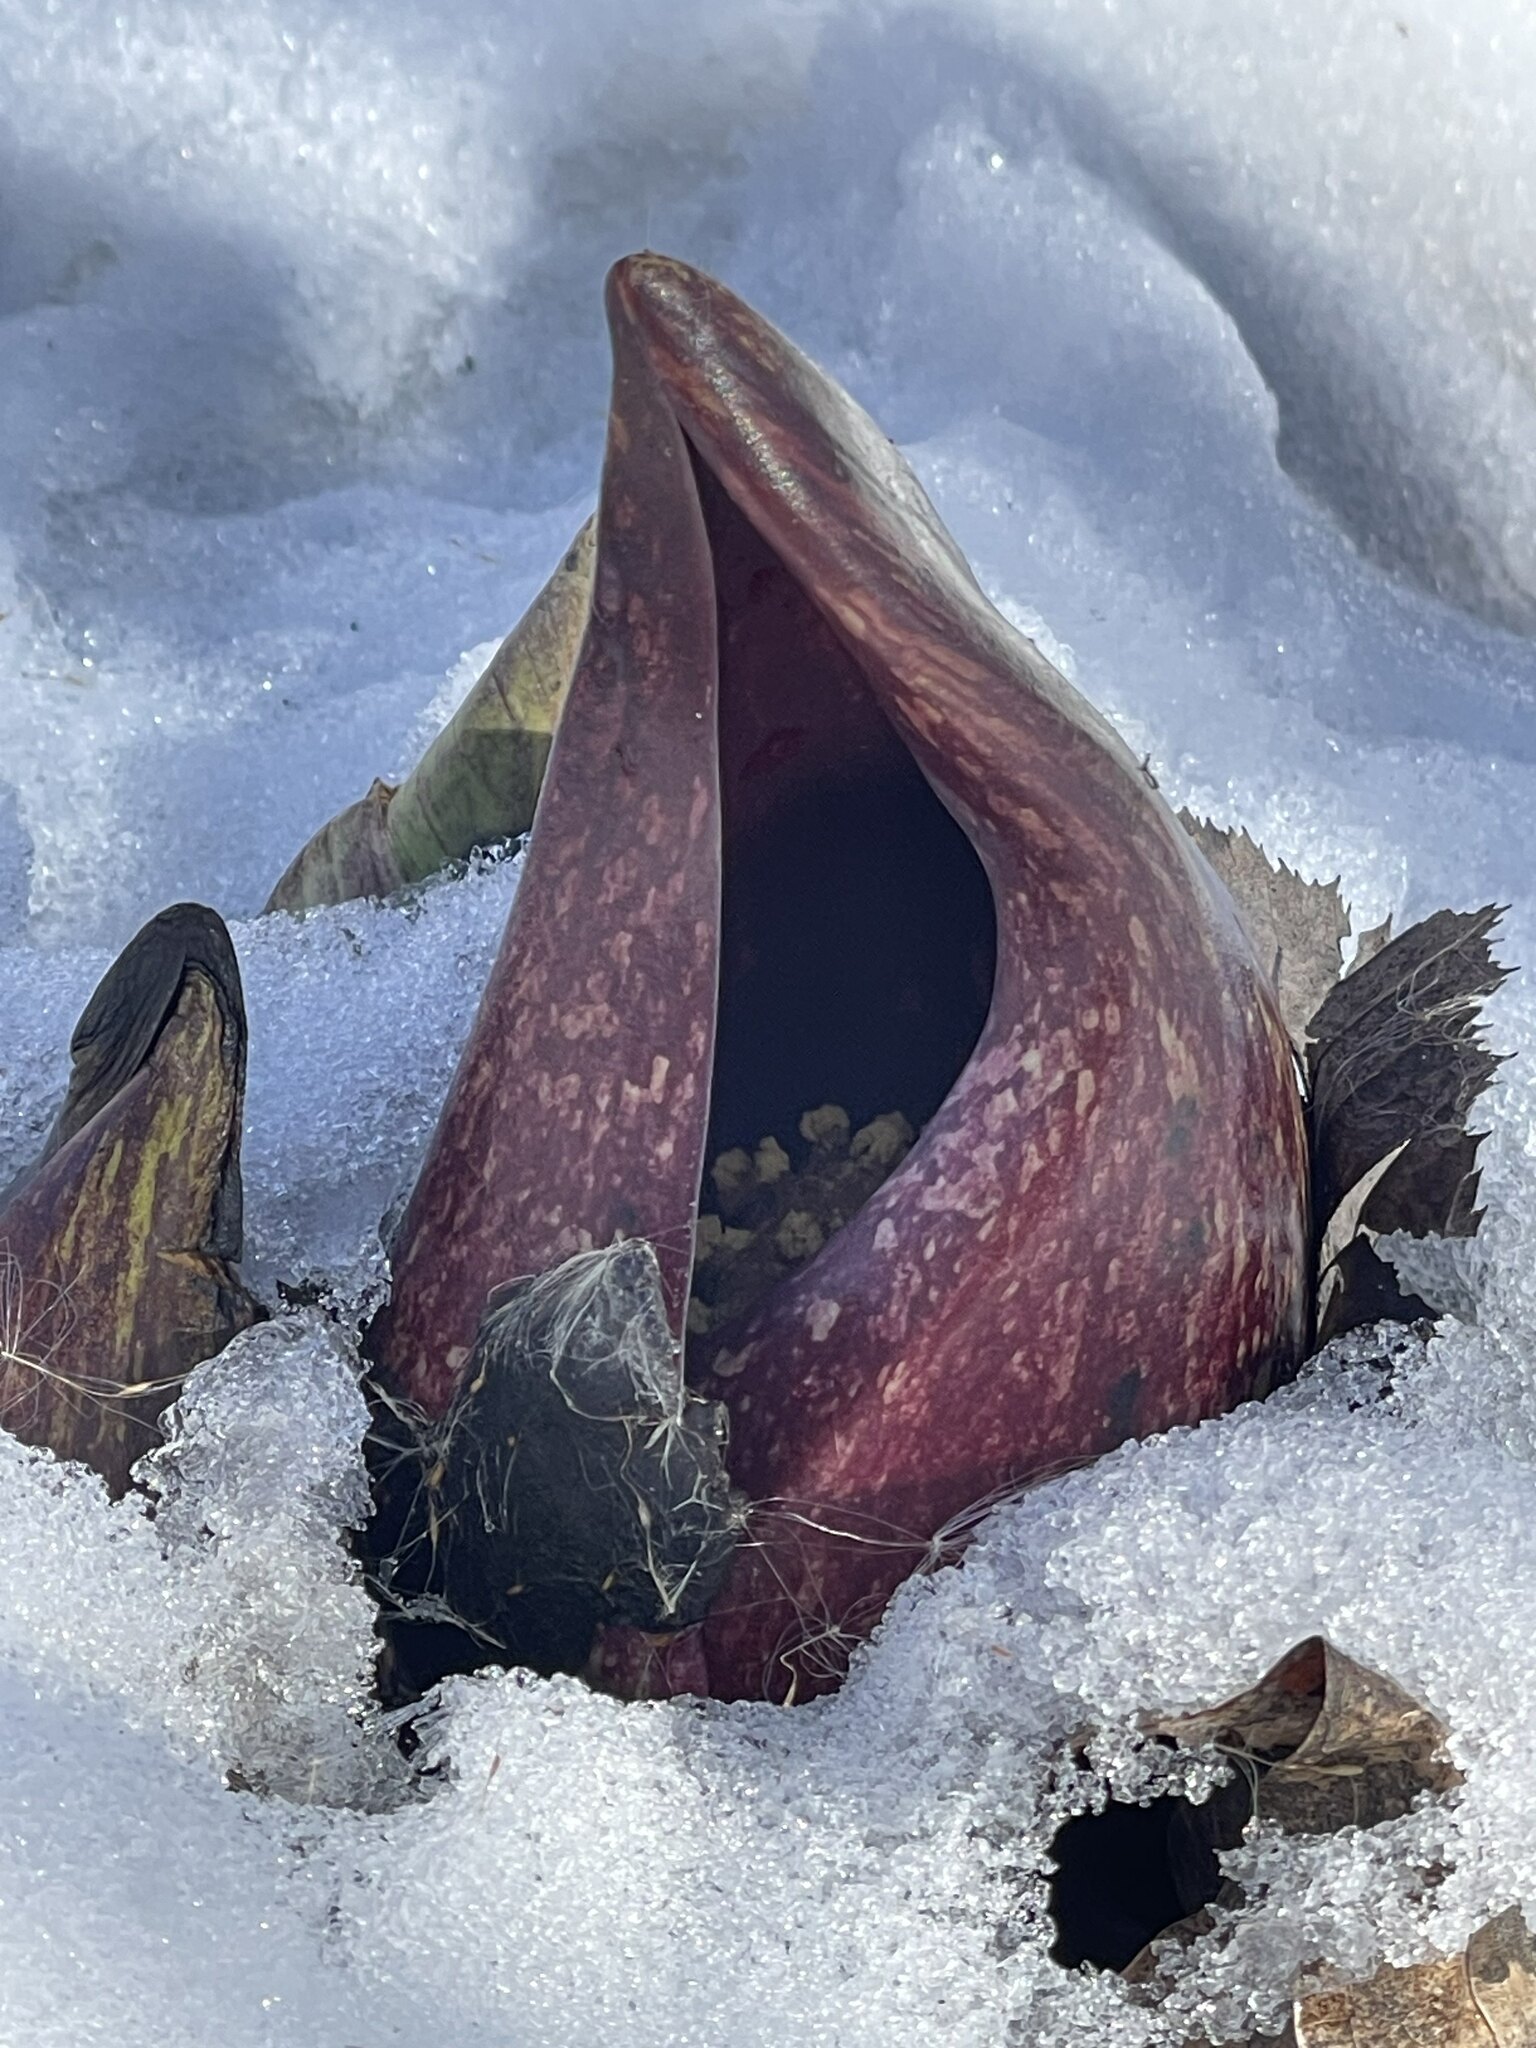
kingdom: Plantae
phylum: Tracheophyta
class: Liliopsida
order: Alismatales
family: Araceae
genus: Symplocarpus
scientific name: Symplocarpus foetidus
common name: Eastern skunk cabbage
